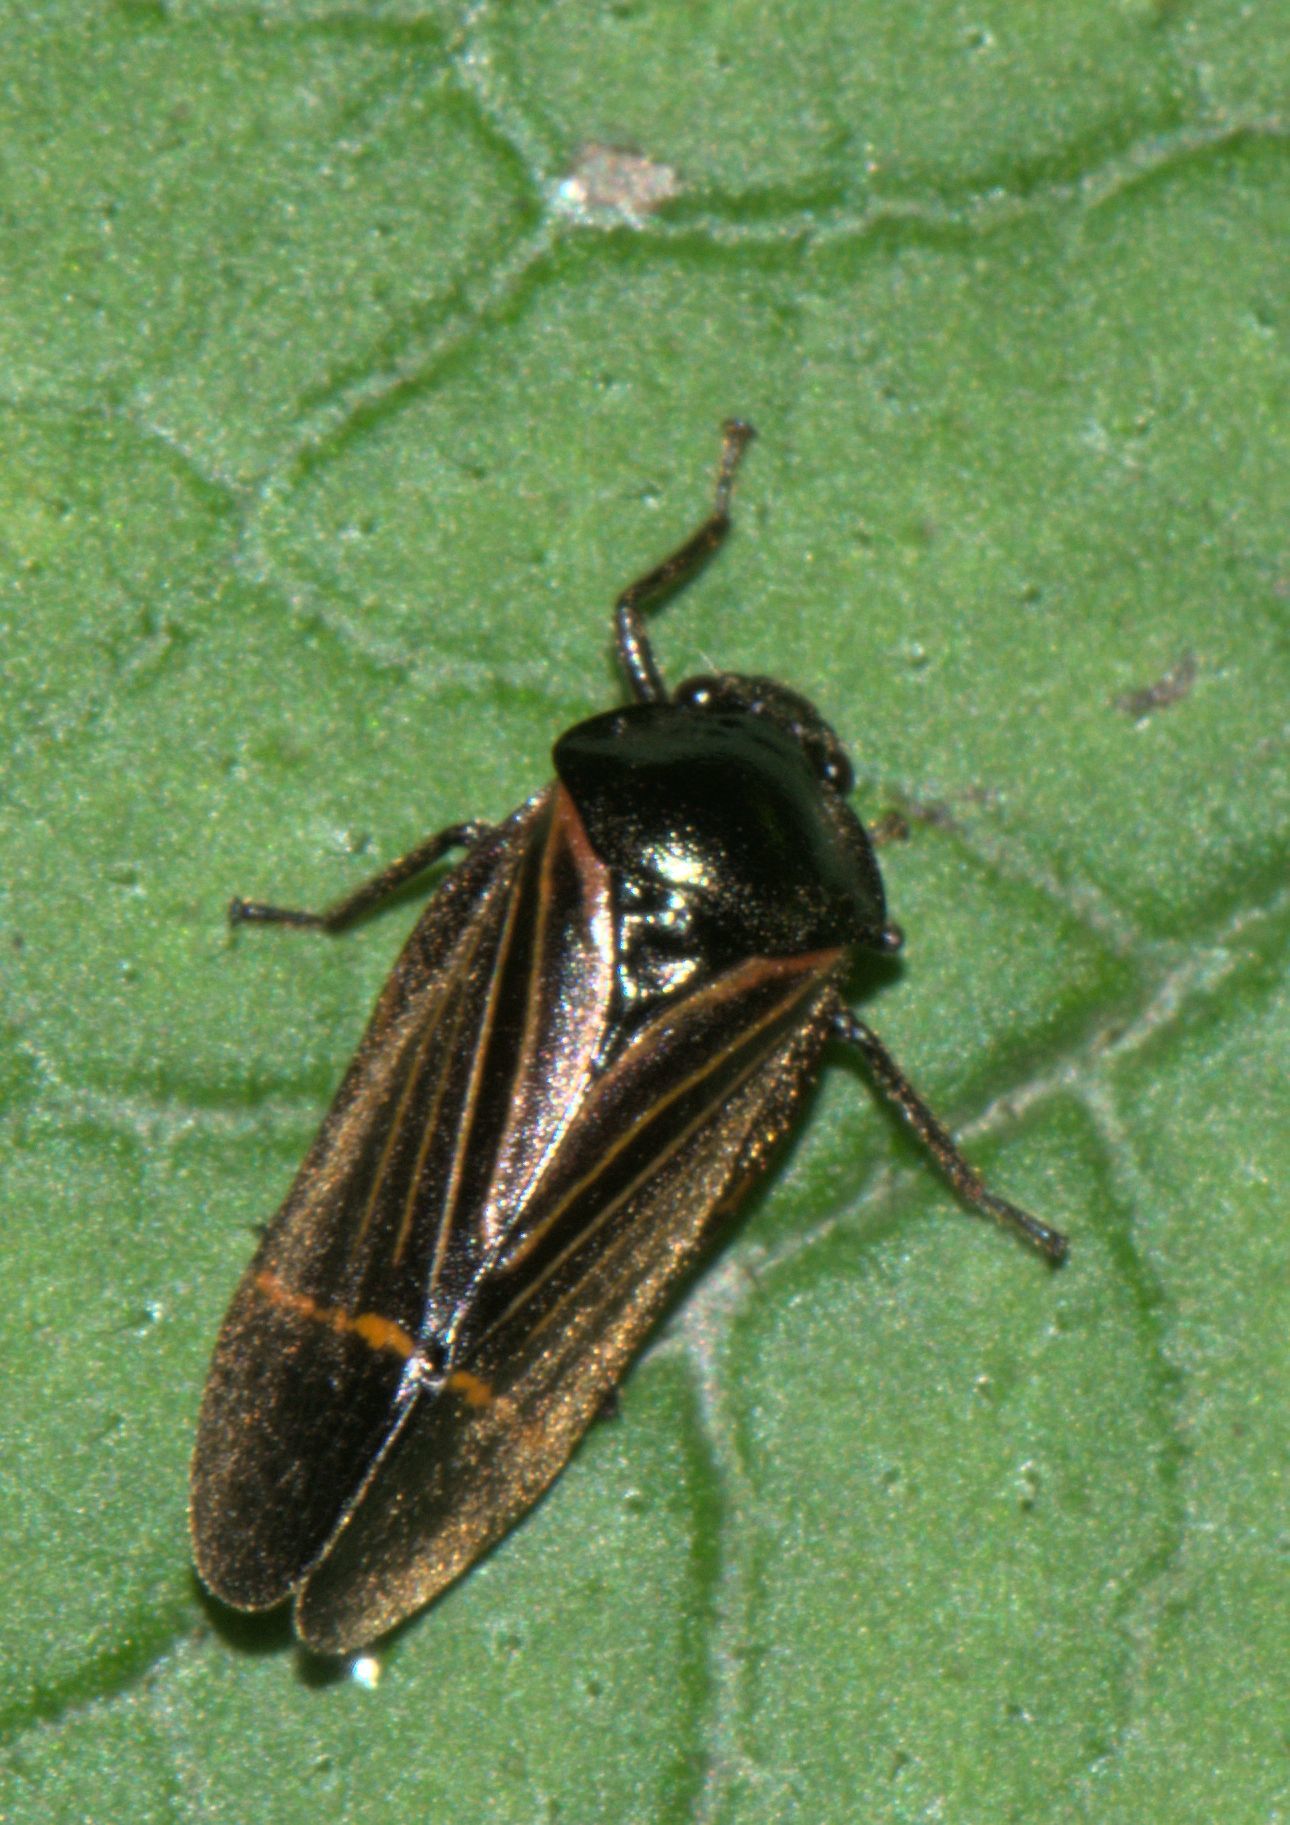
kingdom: Animalia
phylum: Arthropoda
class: Insecta
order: Hemiptera
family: Cercopidae
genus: Cosmoscarta
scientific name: Cosmoscarta elegantula
